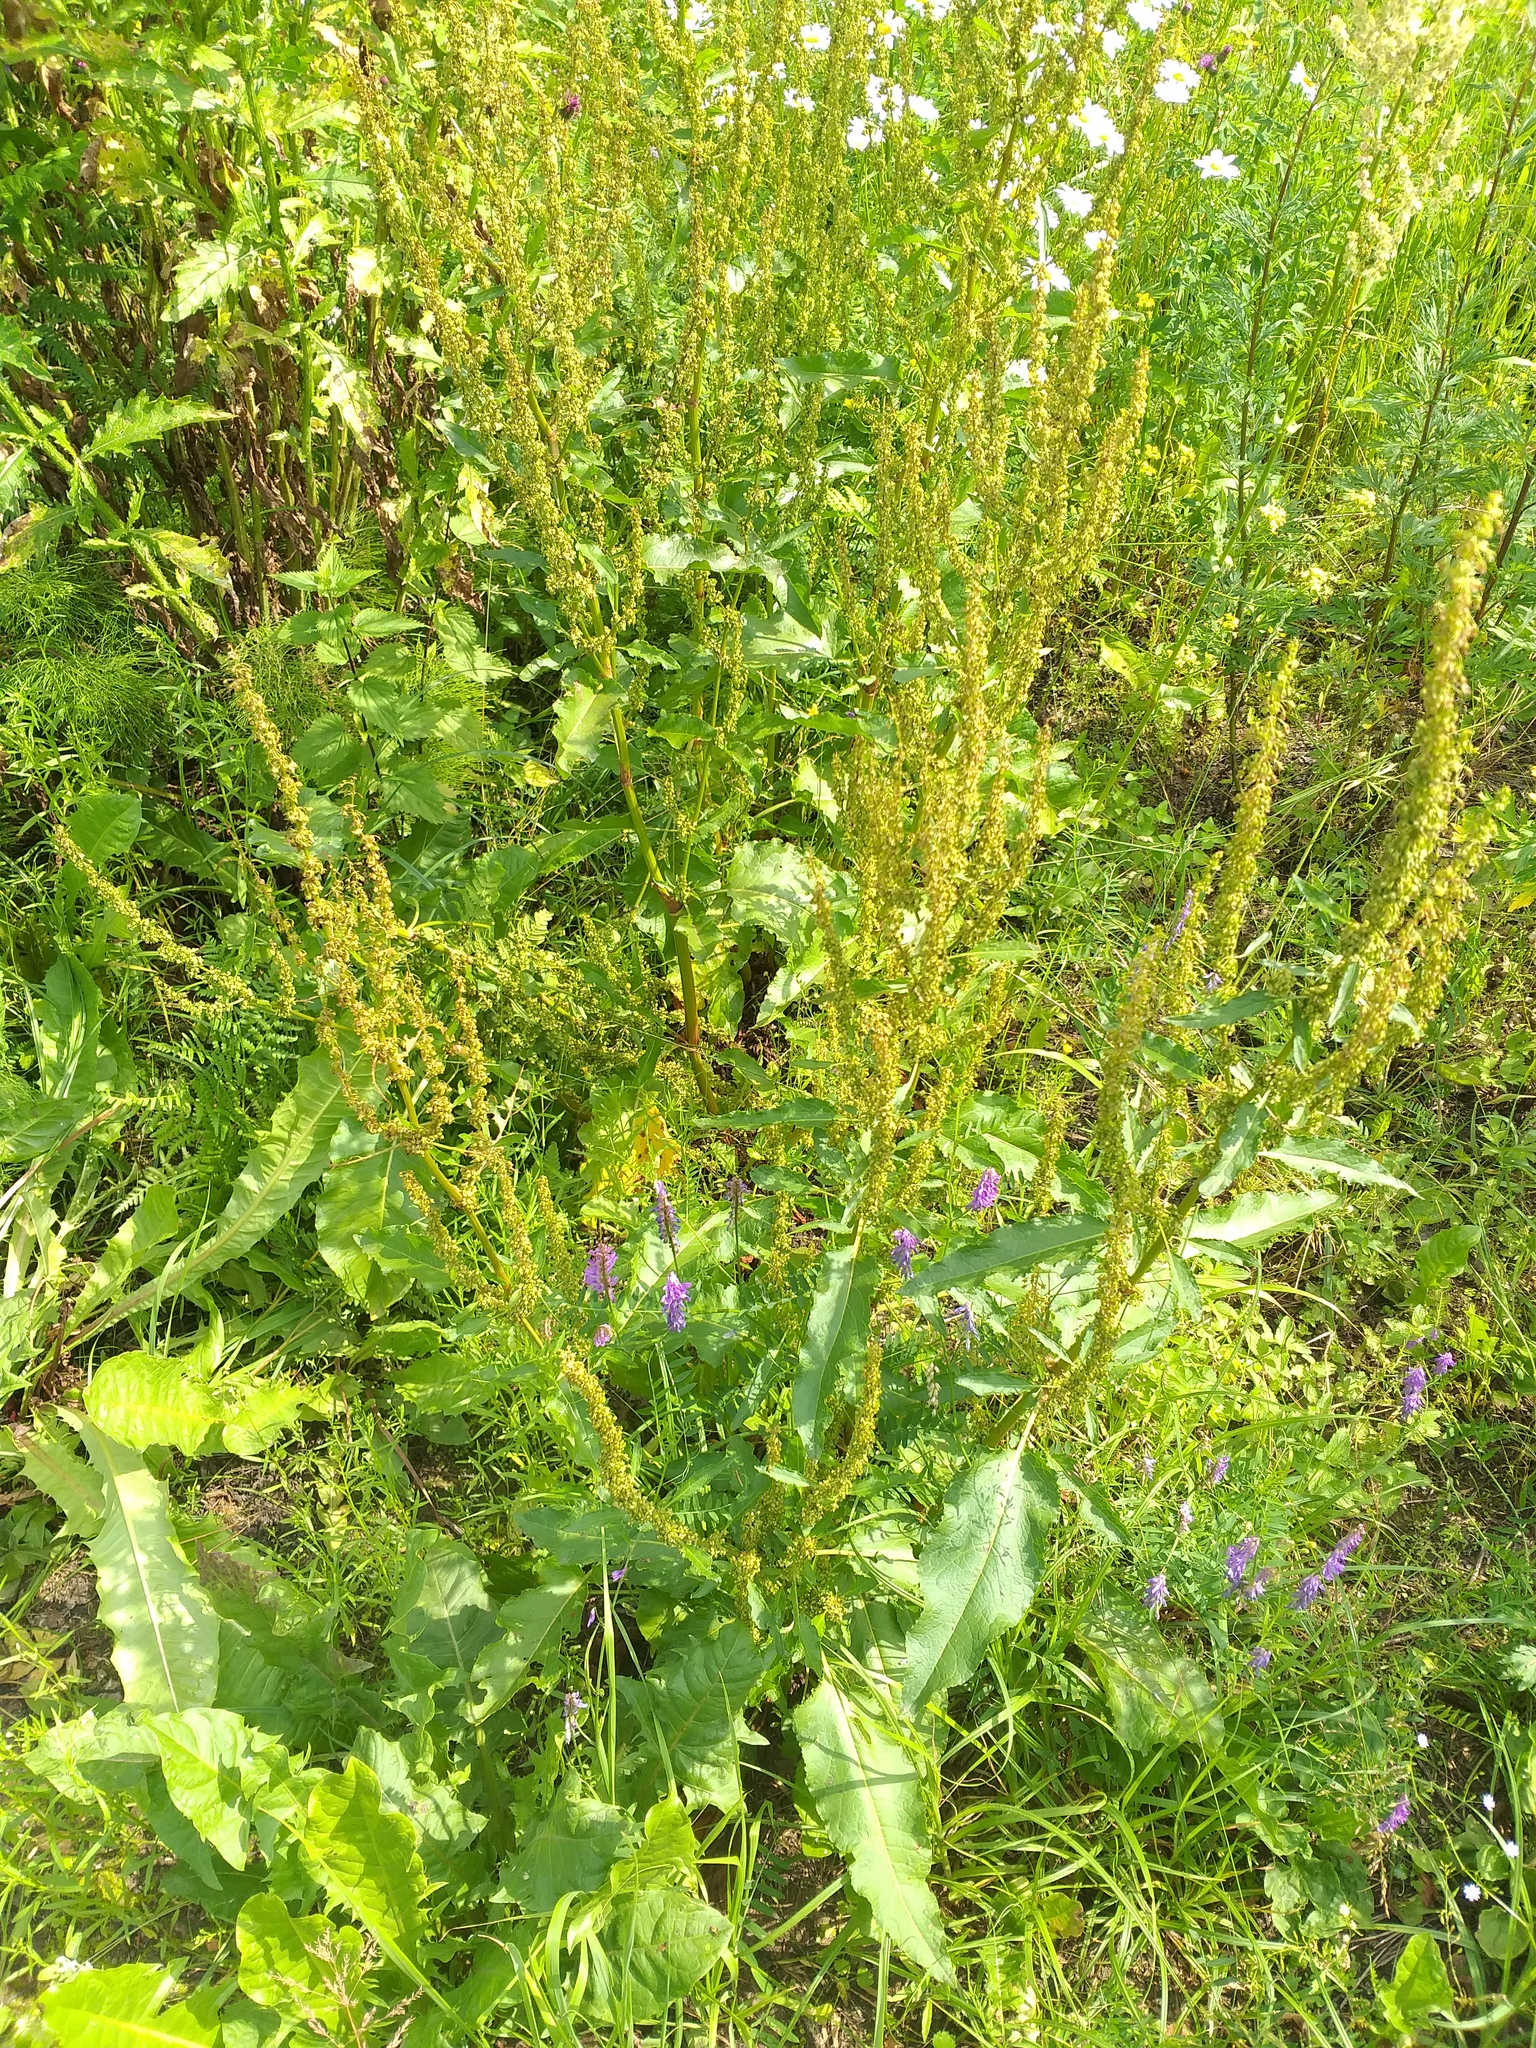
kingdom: Plantae
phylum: Tracheophyta
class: Magnoliopsida
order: Caryophyllales
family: Polygonaceae
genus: Rumex
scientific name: Rumex obtusifolius
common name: Bitter dock
